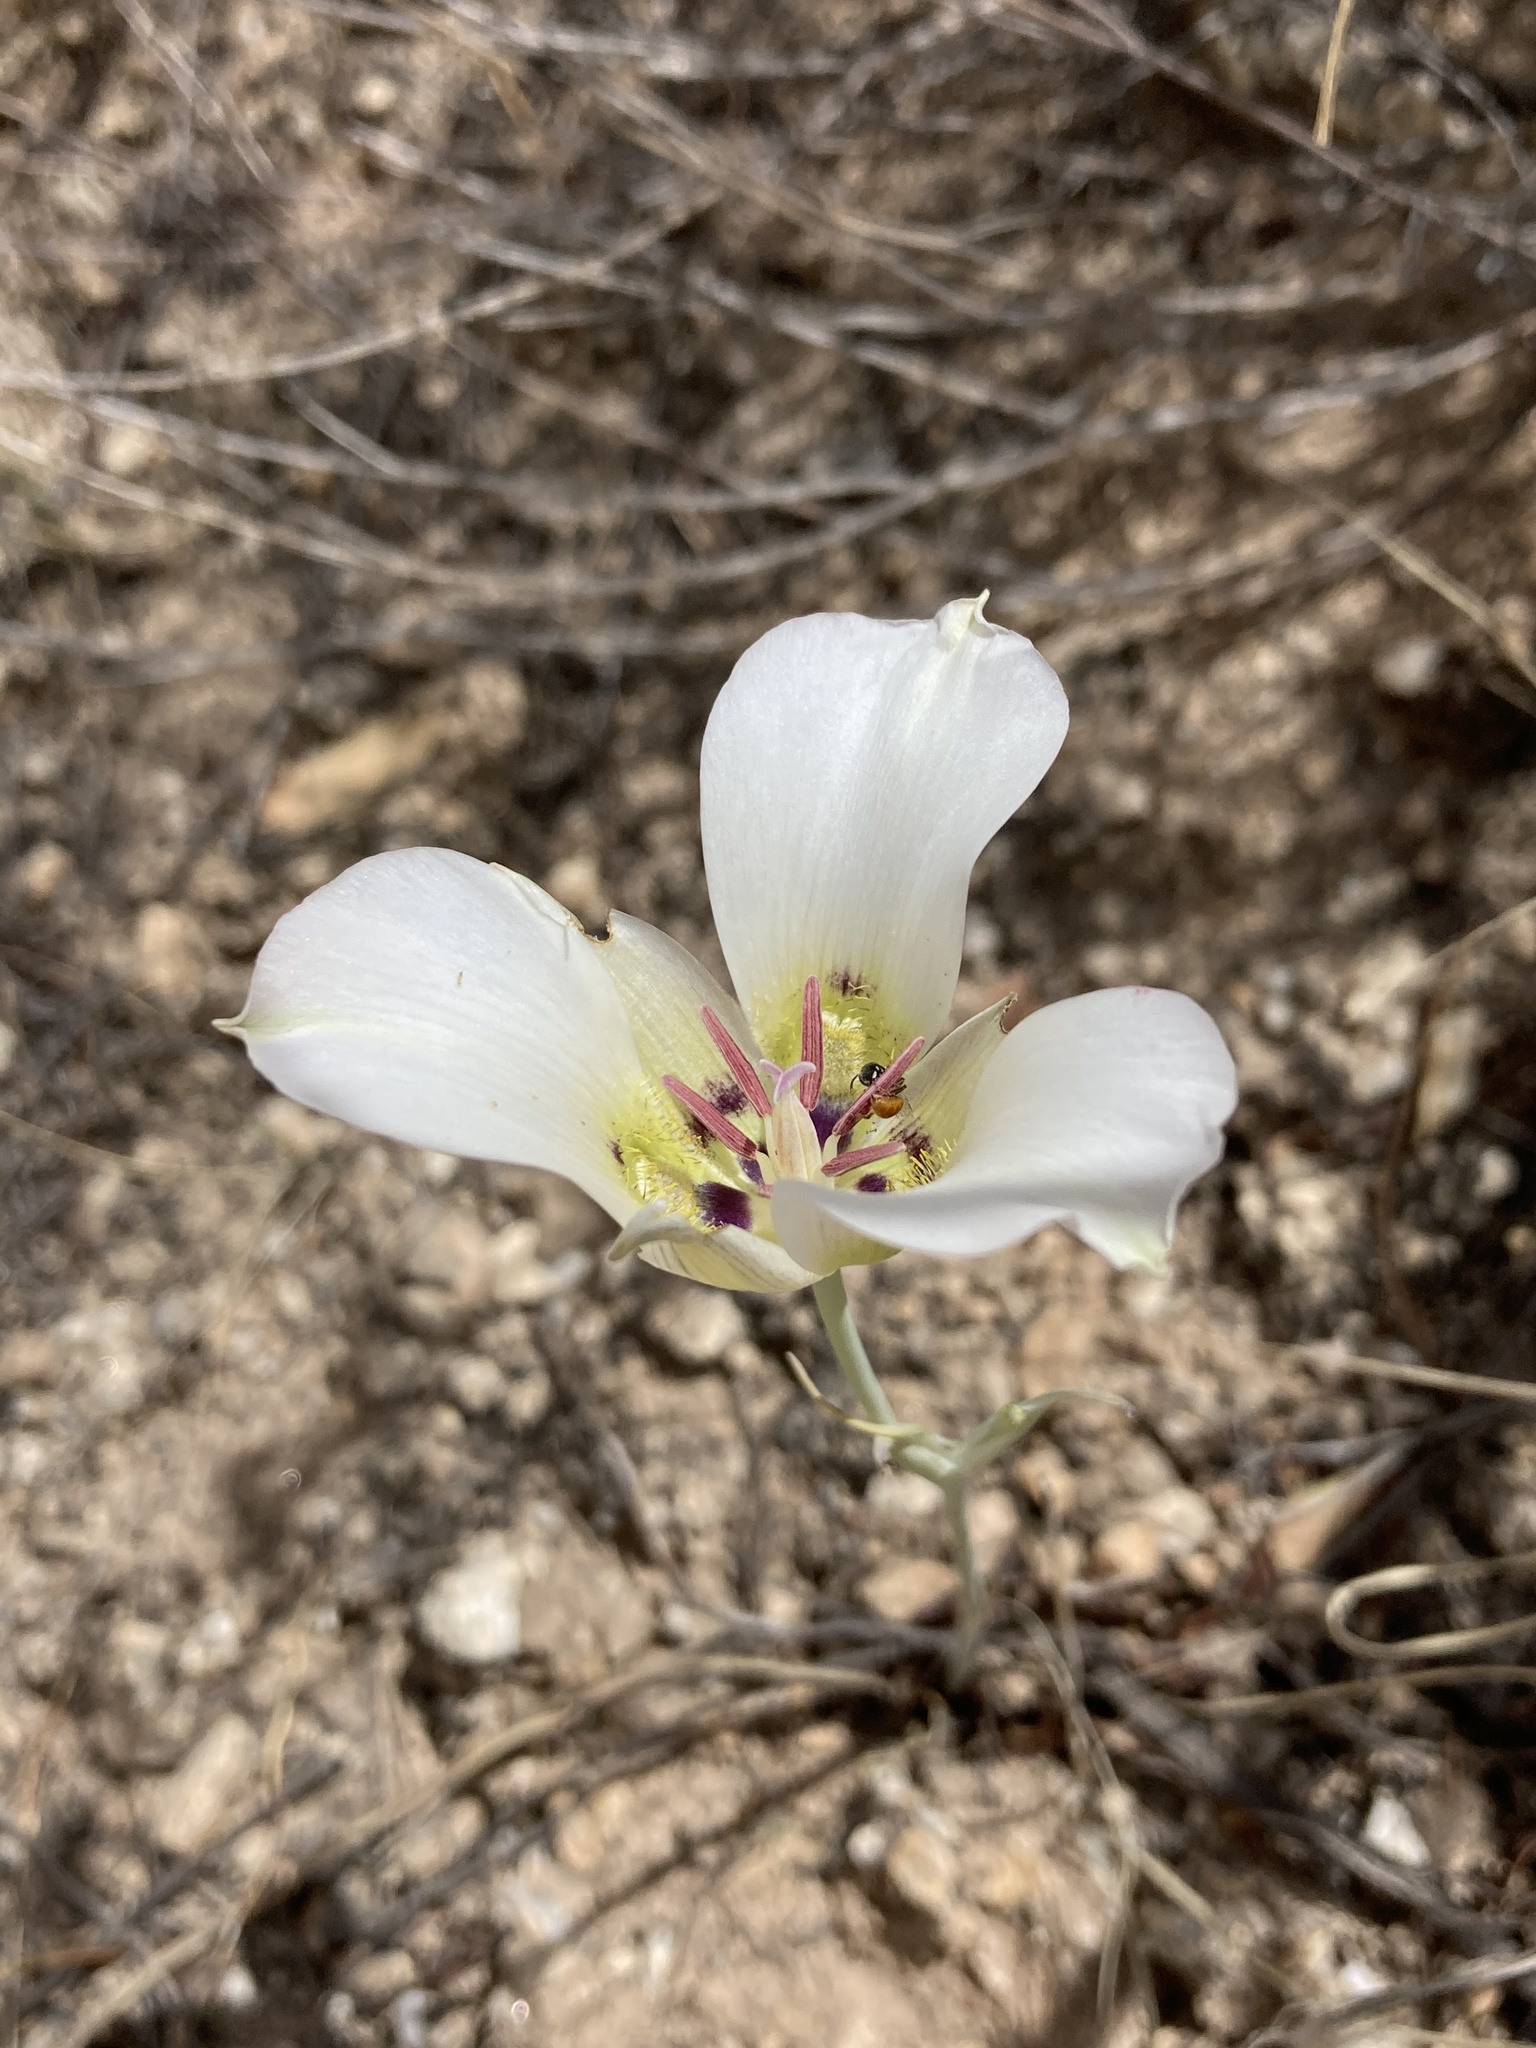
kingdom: Plantae
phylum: Tracheophyta
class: Liliopsida
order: Liliales
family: Liliaceae
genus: Calochortus
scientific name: Calochortus ambiguus
